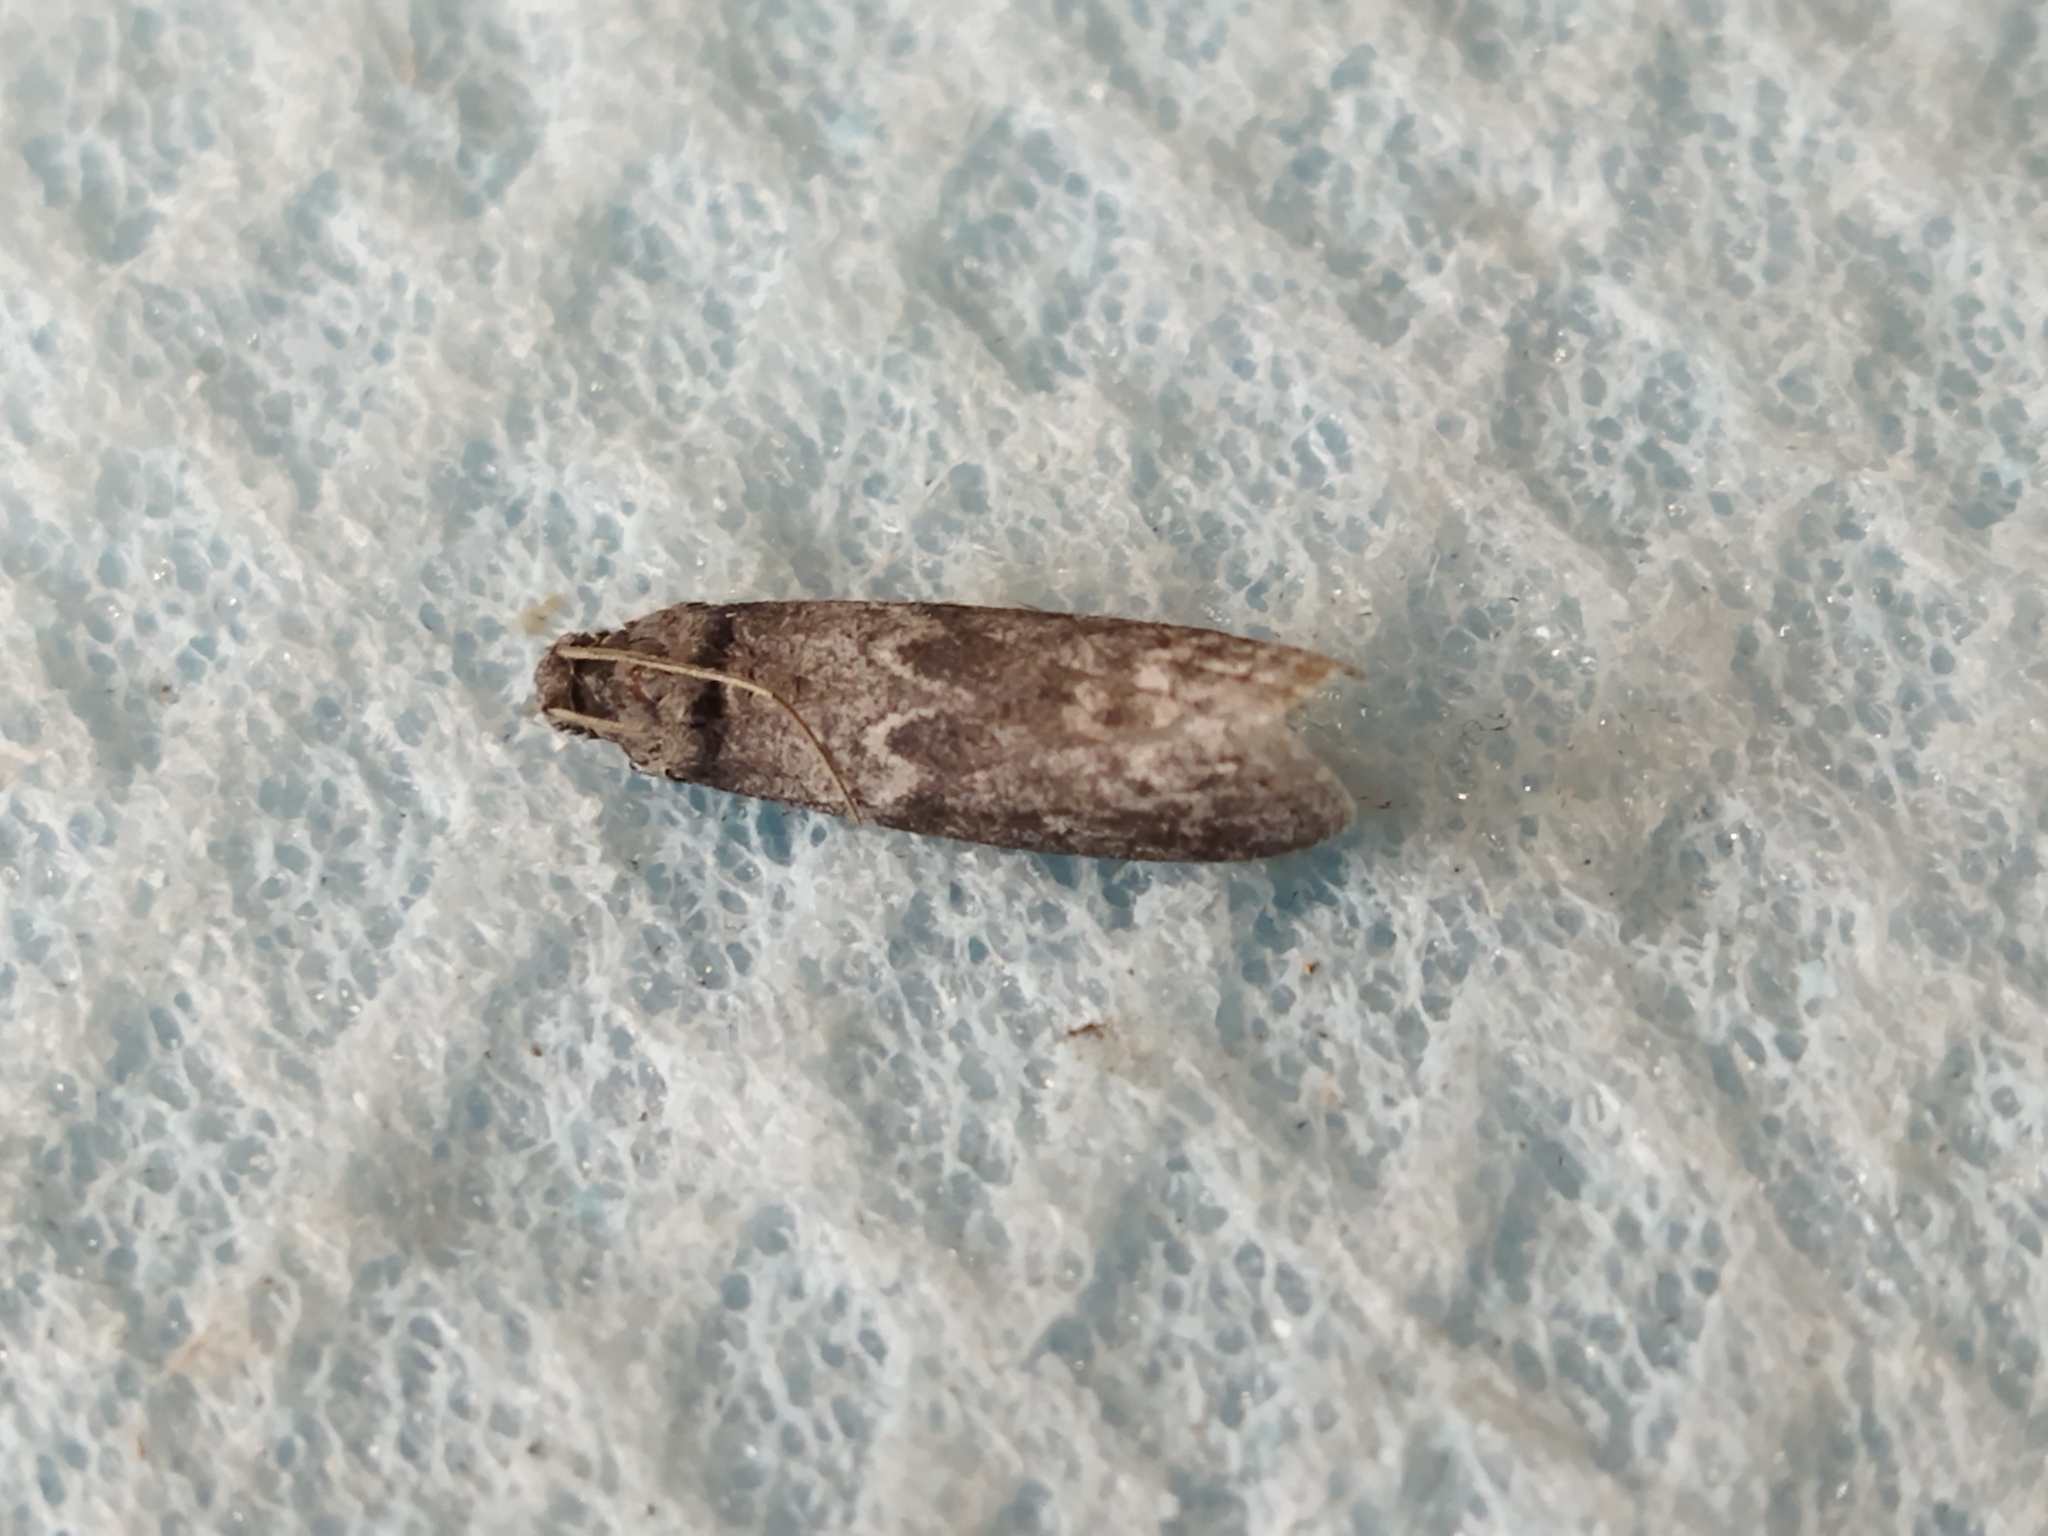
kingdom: Animalia
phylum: Arthropoda
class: Insecta
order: Lepidoptera
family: Pyralidae
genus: Ectomyelois
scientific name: Ectomyelois ceratoniae
